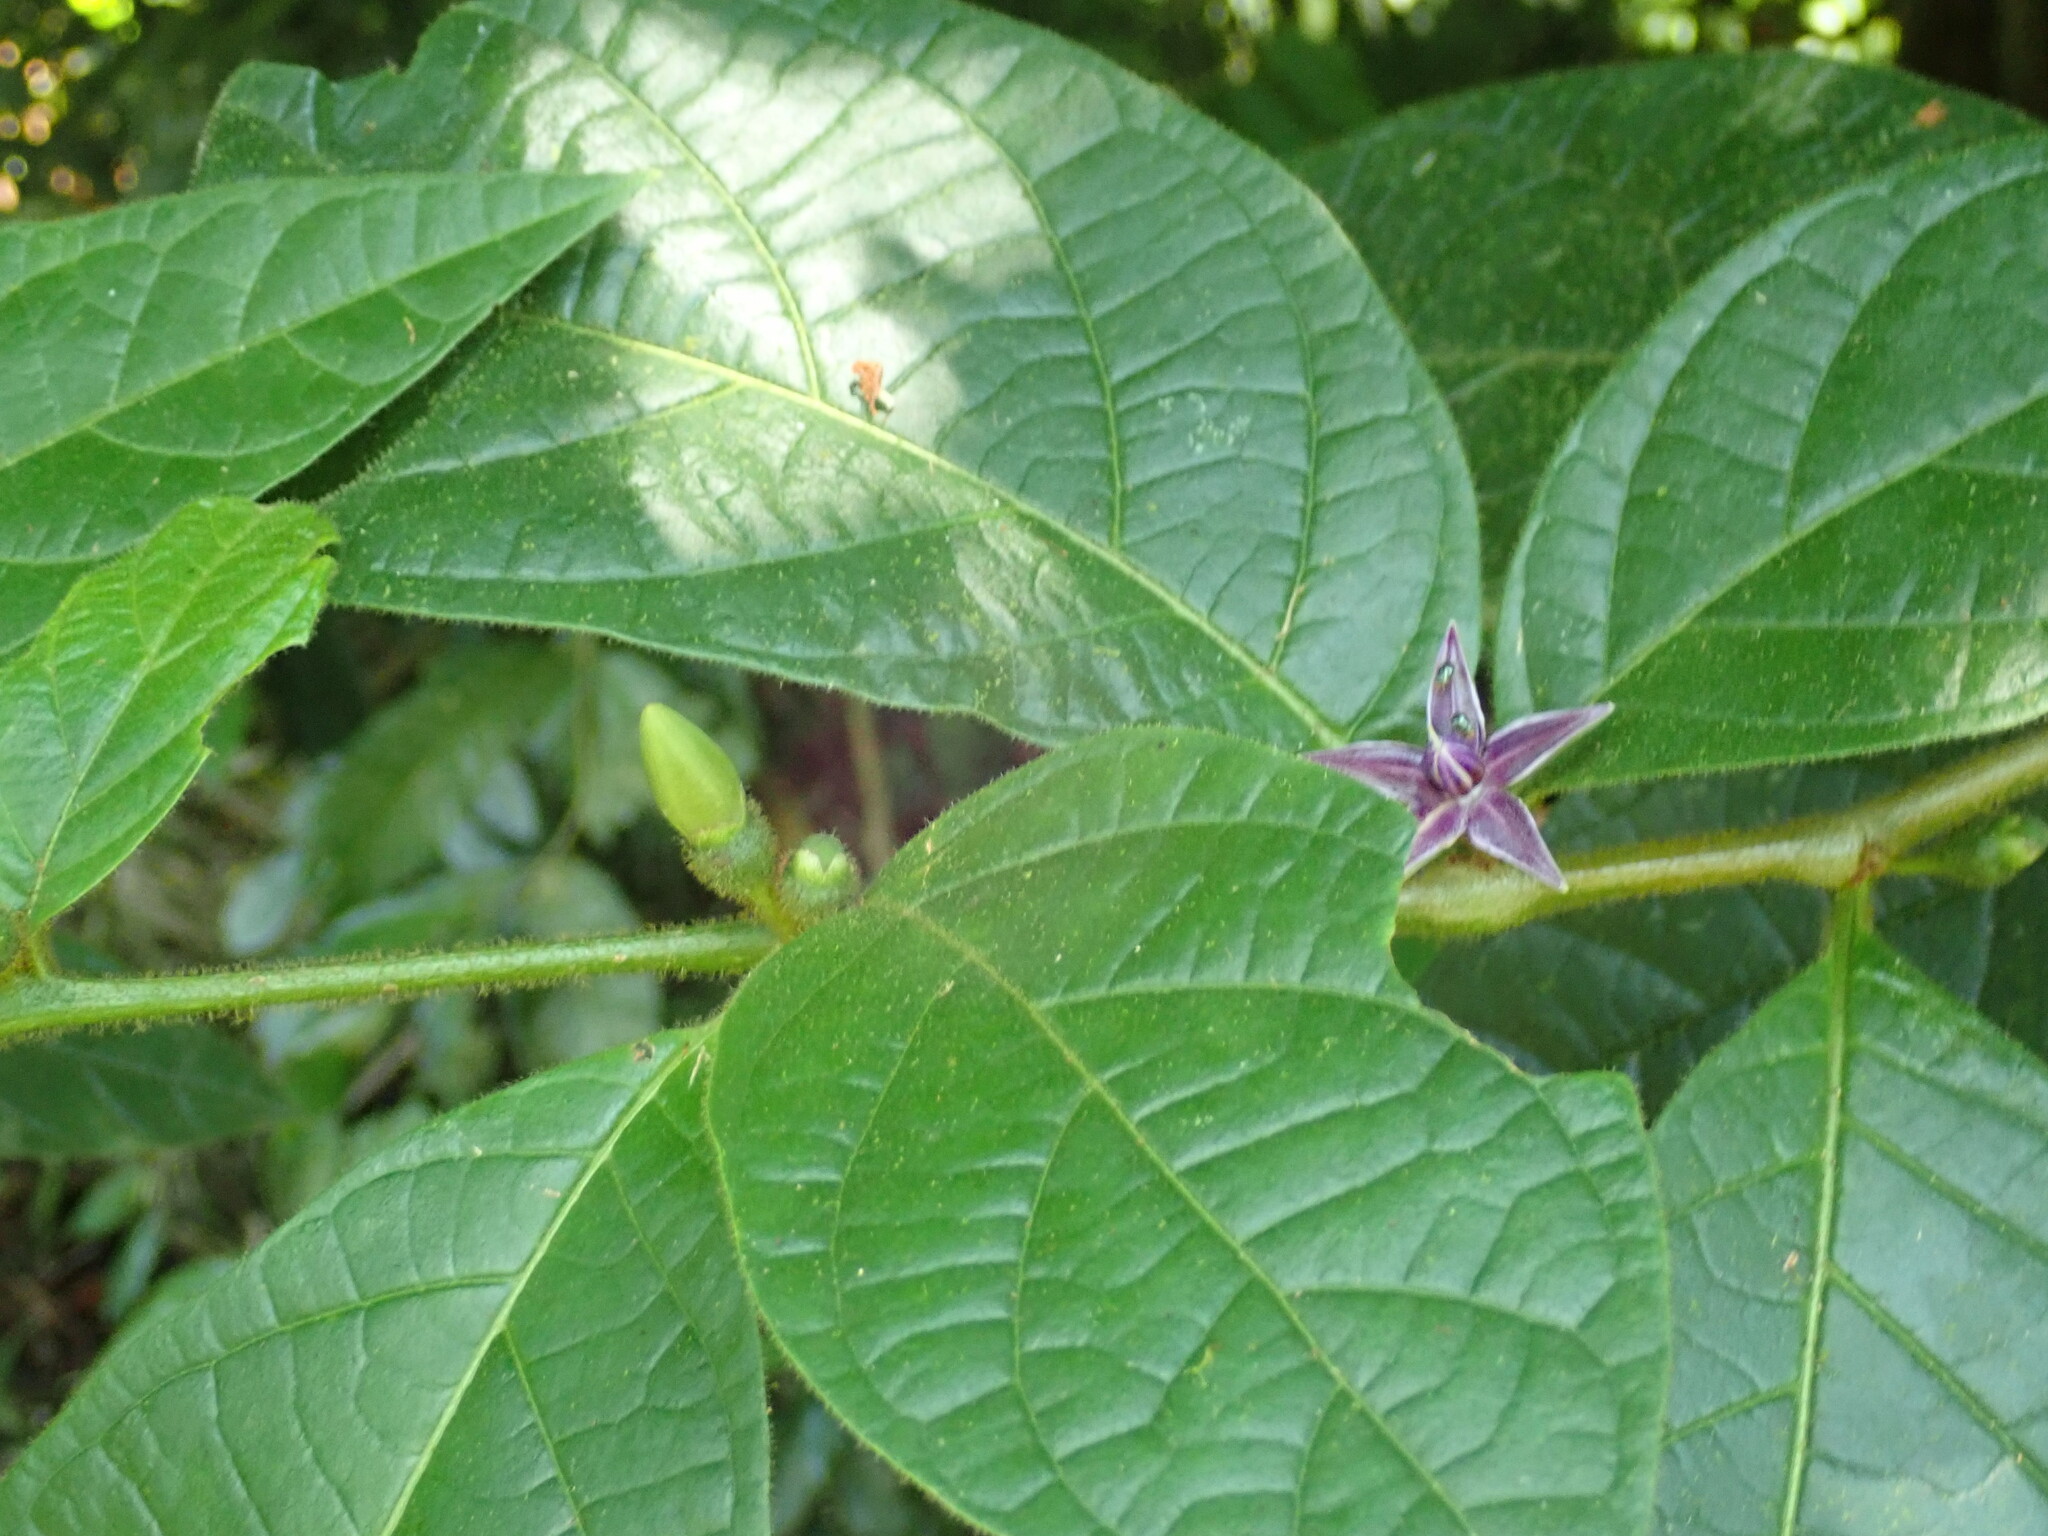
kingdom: Plantae
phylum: Tracheophyta
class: Magnoliopsida
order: Solanales
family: Solanaceae
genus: Lycianthes
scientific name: Lycianthes sanctaeclarae
